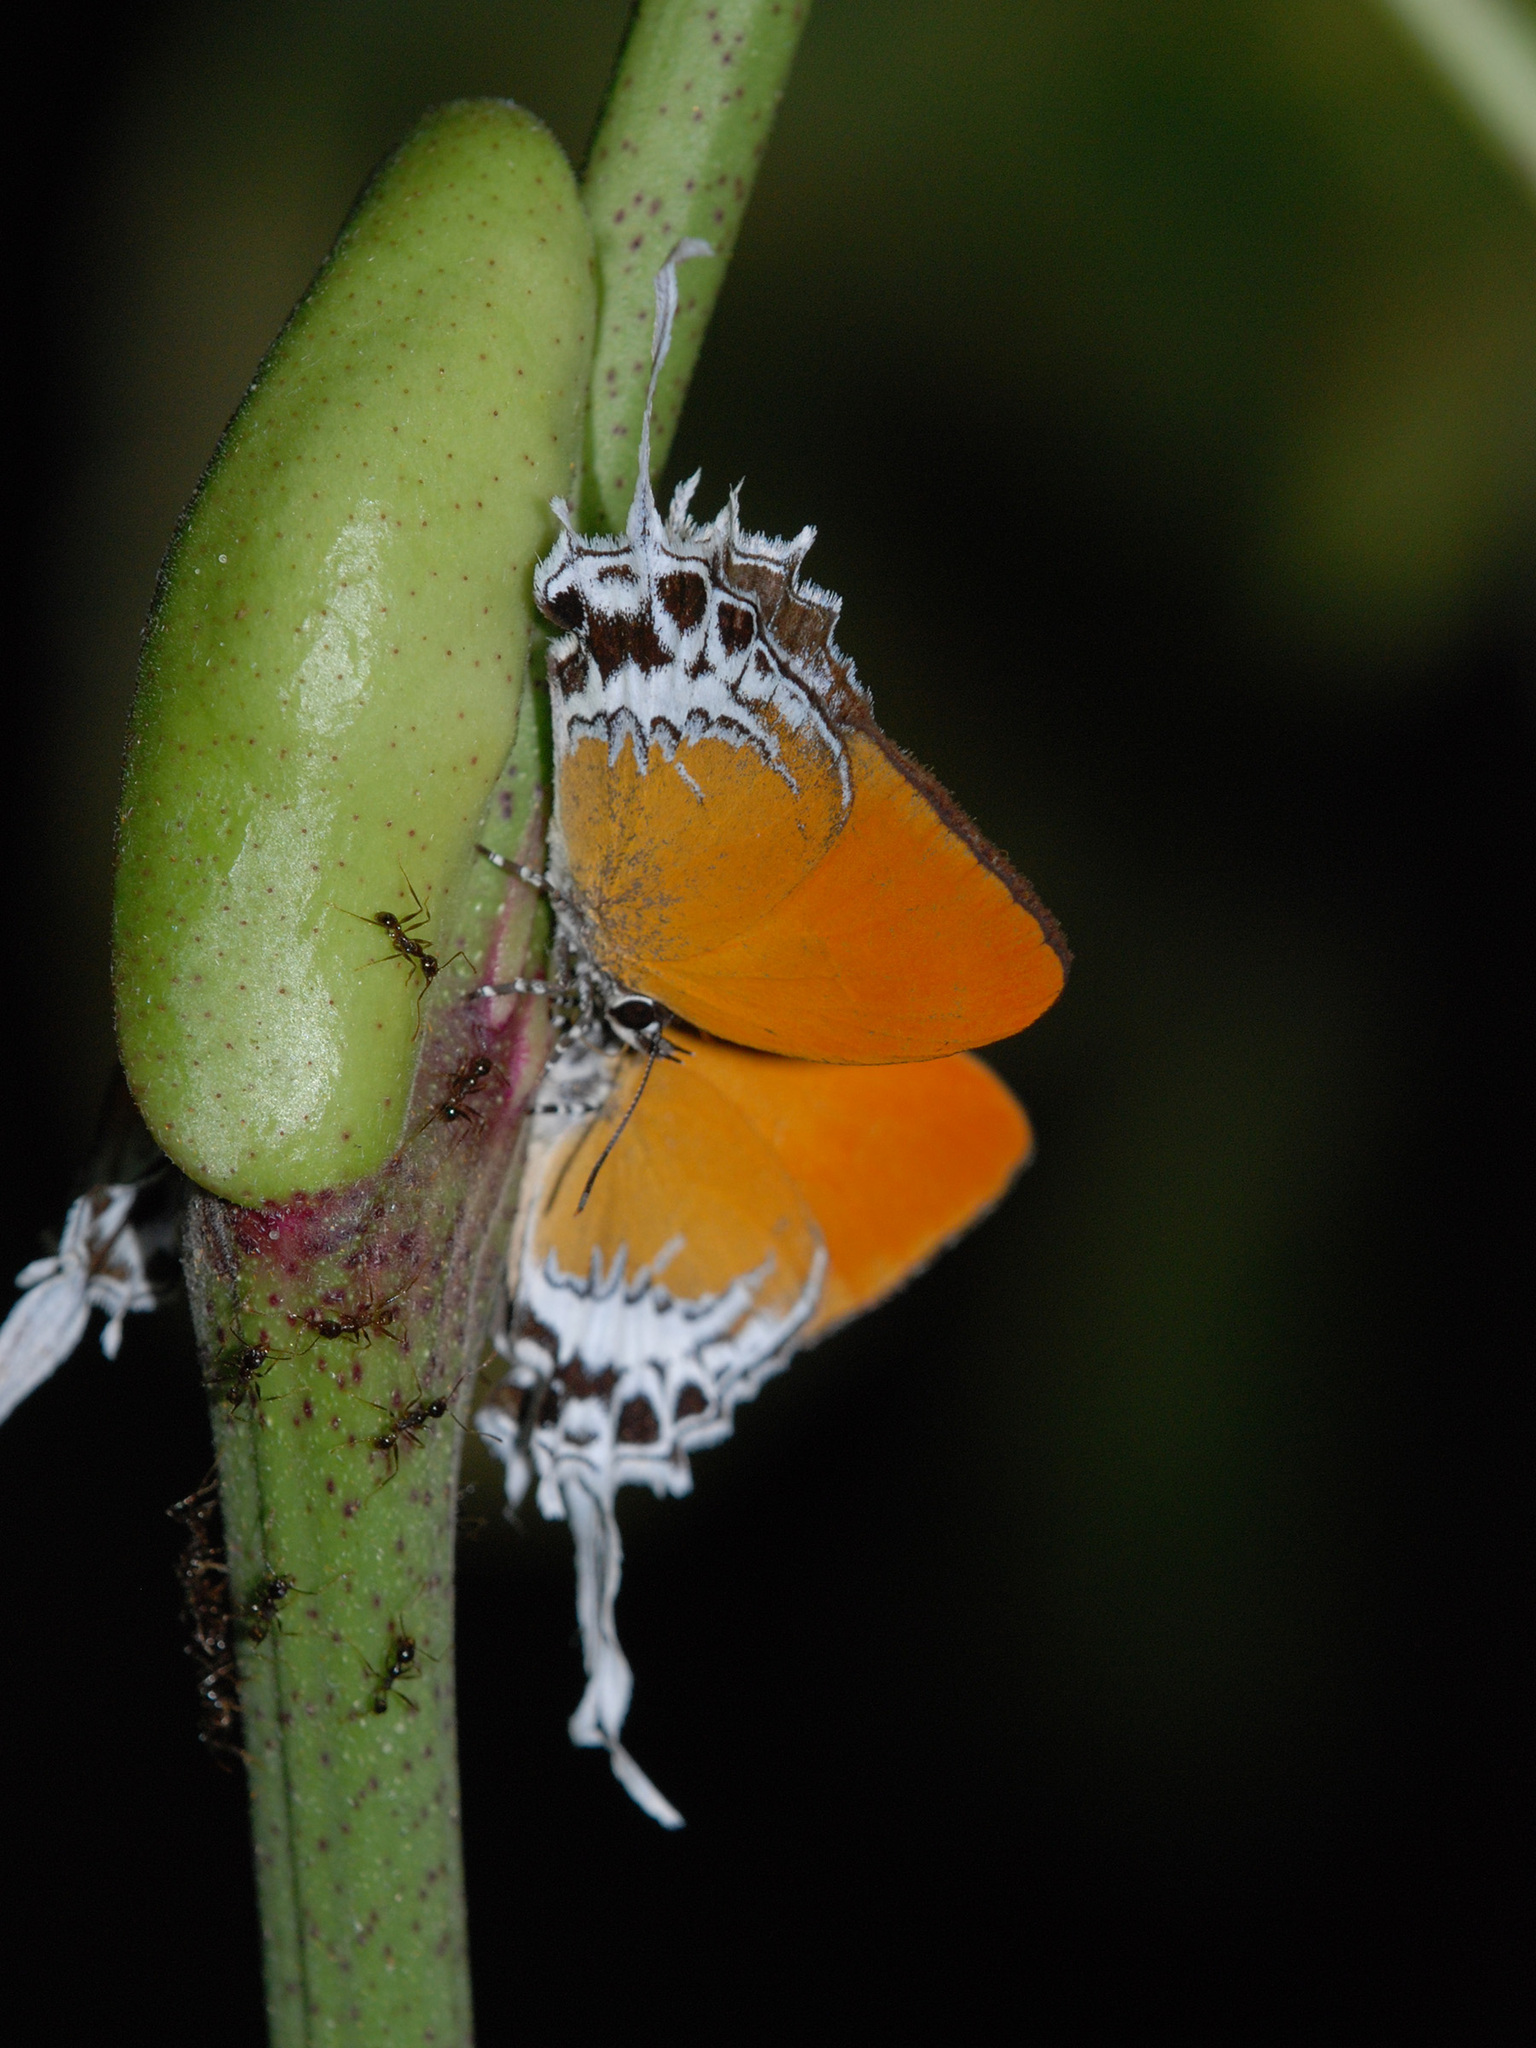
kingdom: Animalia
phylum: Arthropoda
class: Insecta
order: Lepidoptera
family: Lycaenidae
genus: Eooxylides
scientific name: Eooxylides tharis
